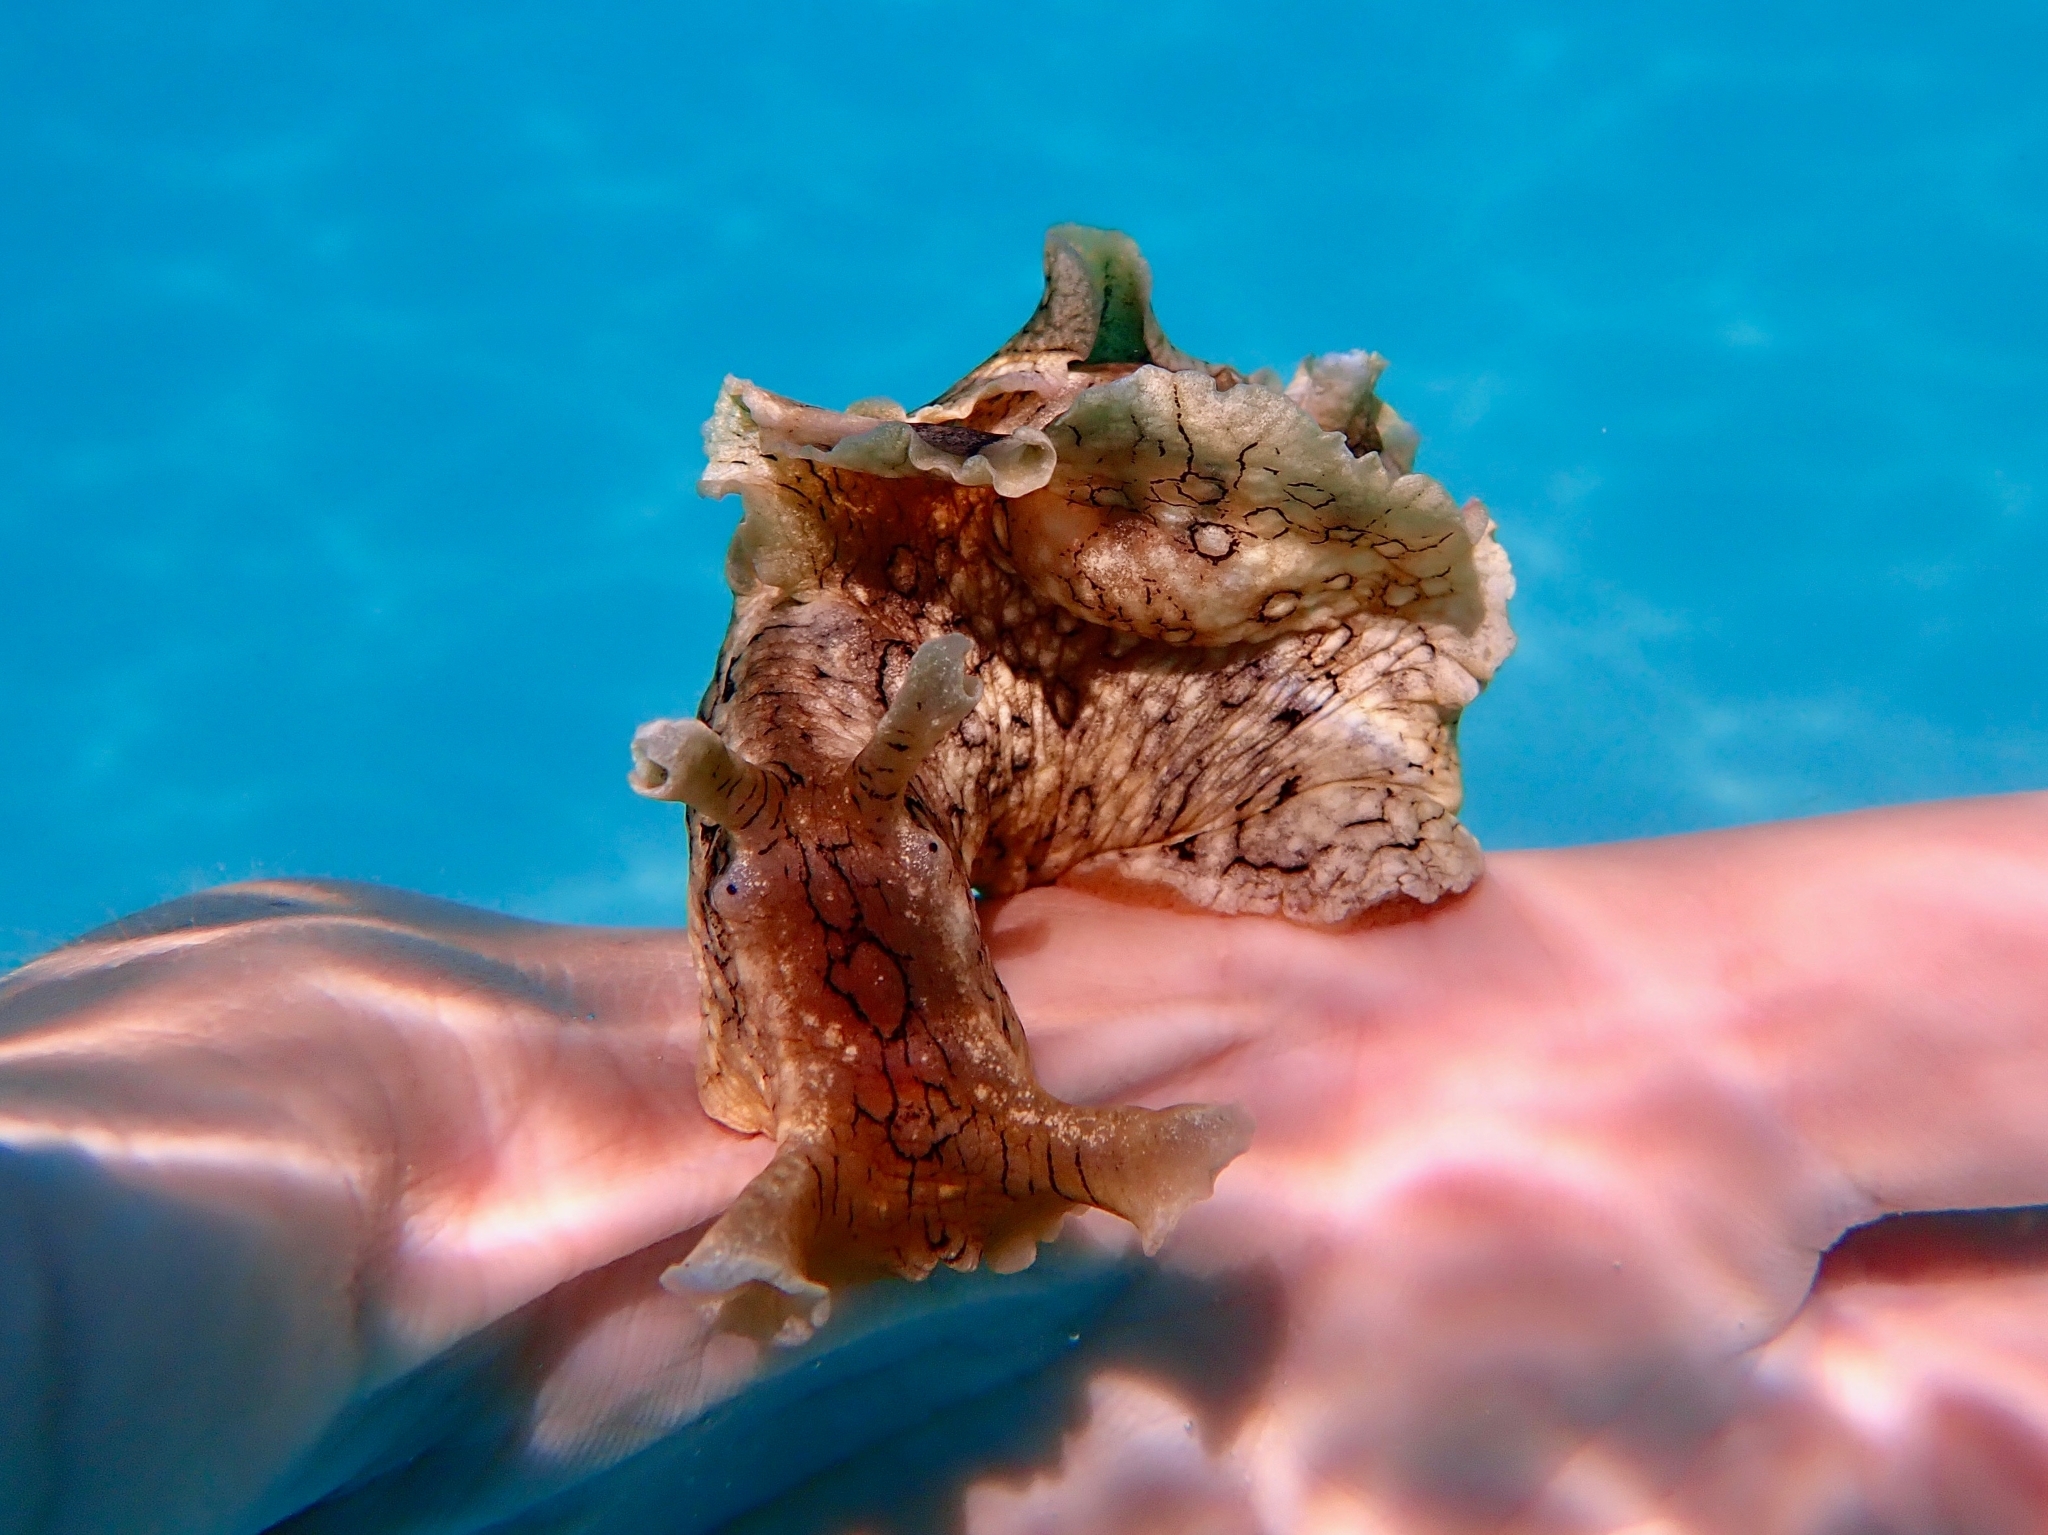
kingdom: Animalia
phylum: Mollusca
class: Gastropoda
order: Aplysiida
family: Aplysiidae
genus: Aplysia
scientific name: Aplysia dactylomela
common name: Large-spotted sea hare
